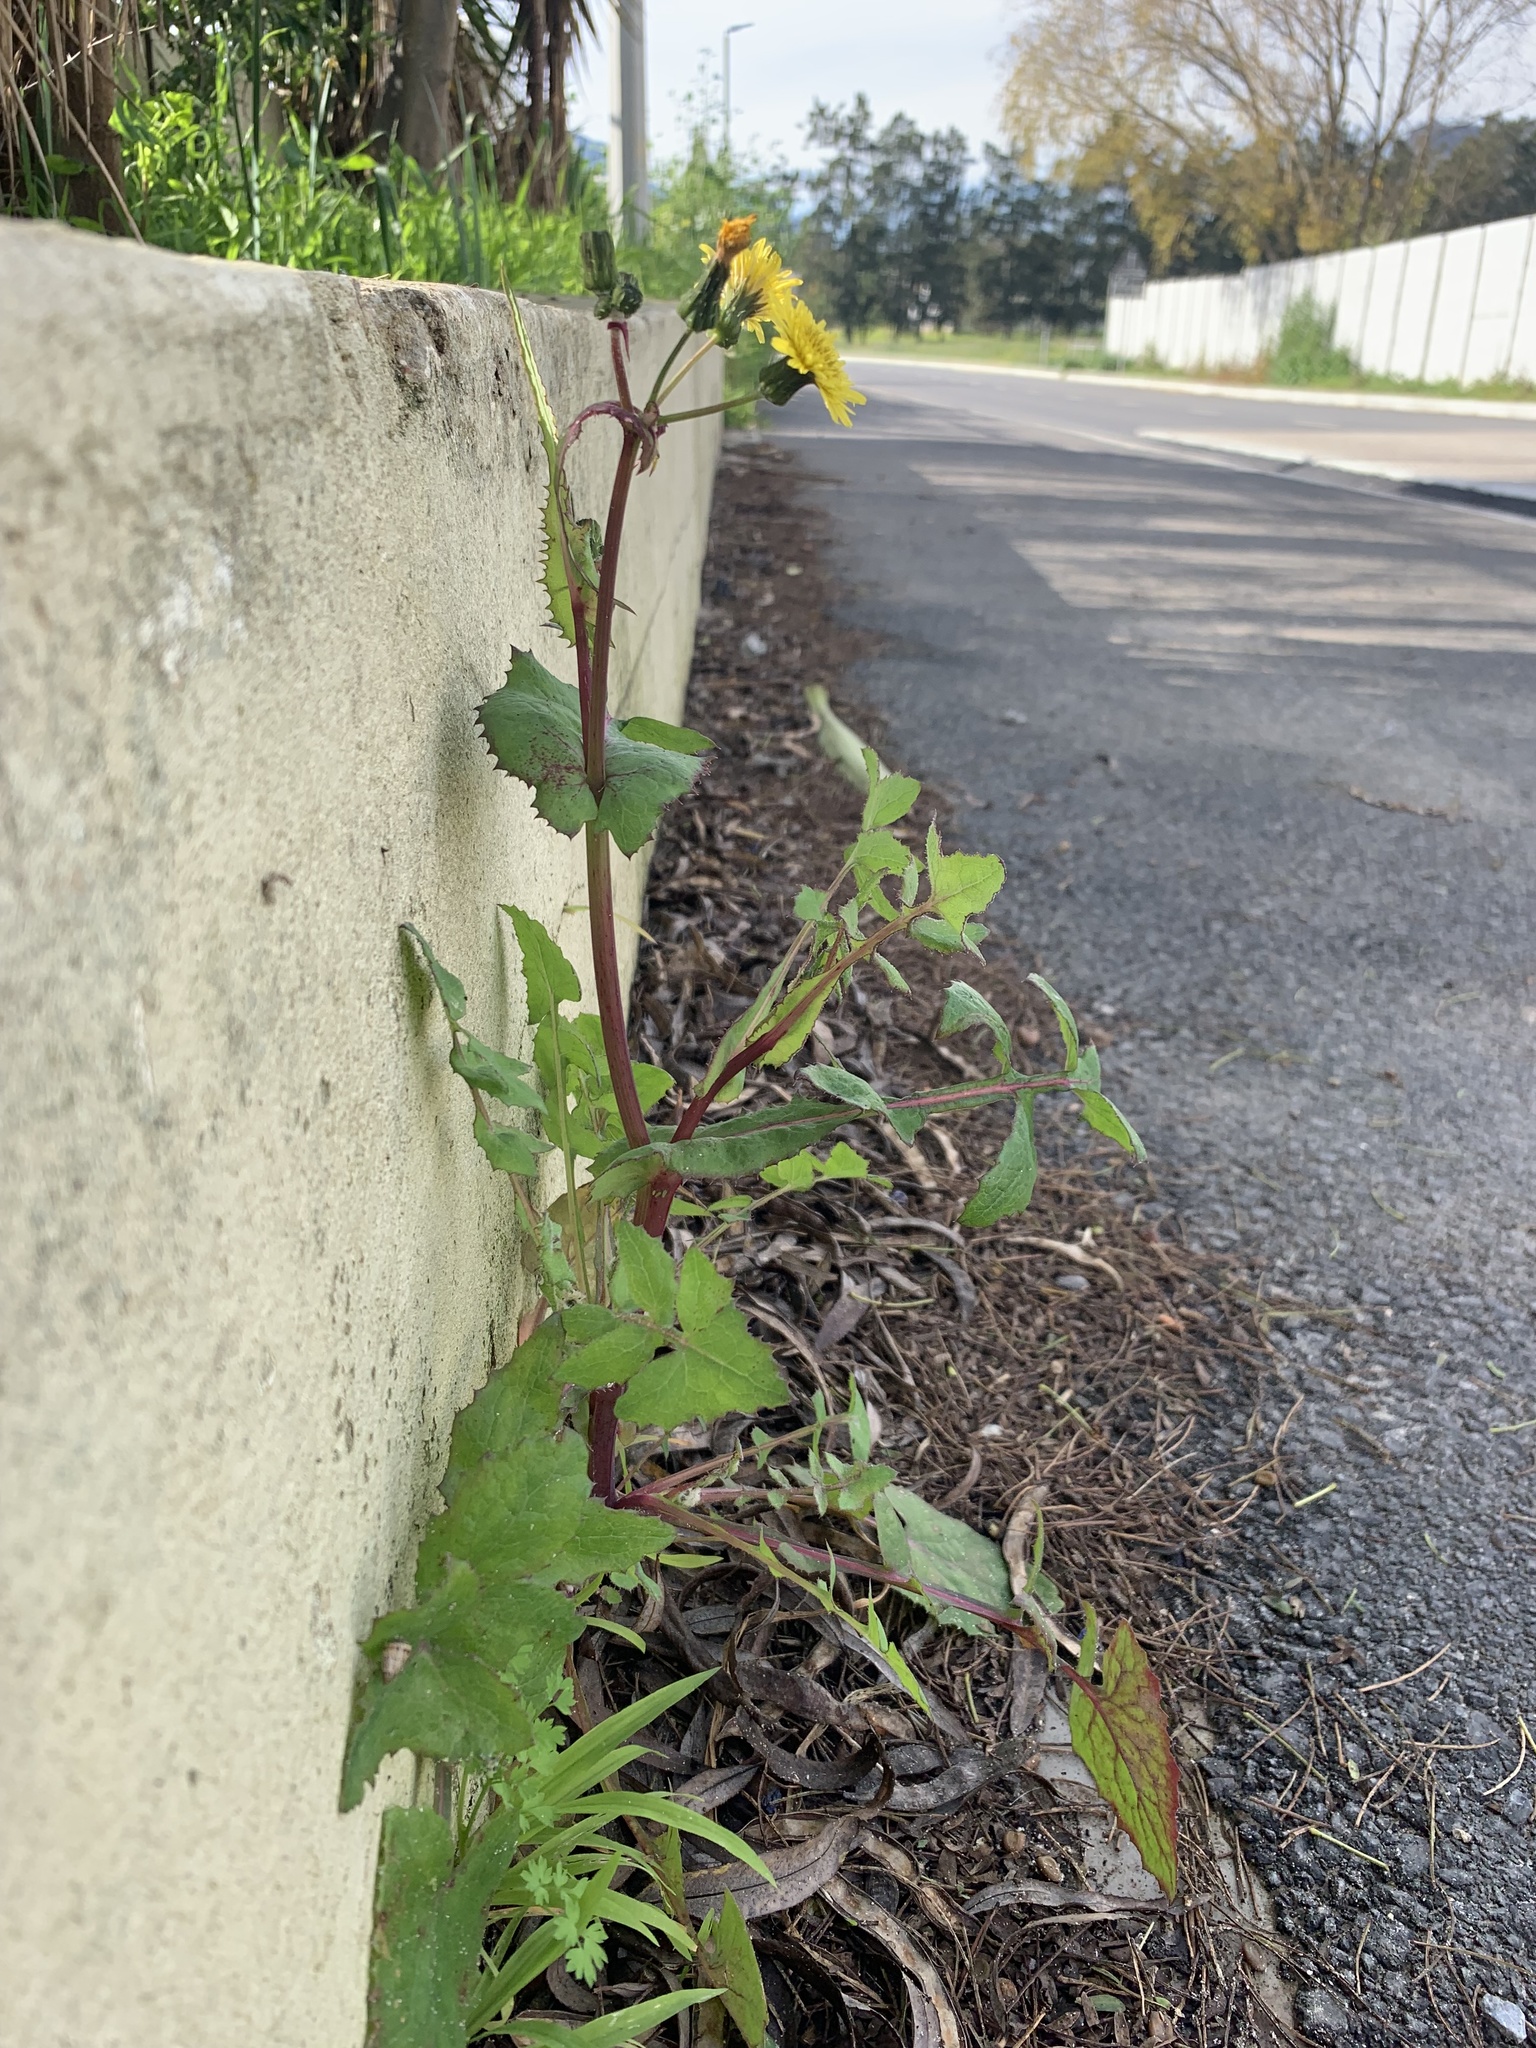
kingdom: Plantae
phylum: Tracheophyta
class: Magnoliopsida
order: Asterales
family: Asteraceae
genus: Sonchus
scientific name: Sonchus oleraceus
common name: Common sowthistle
